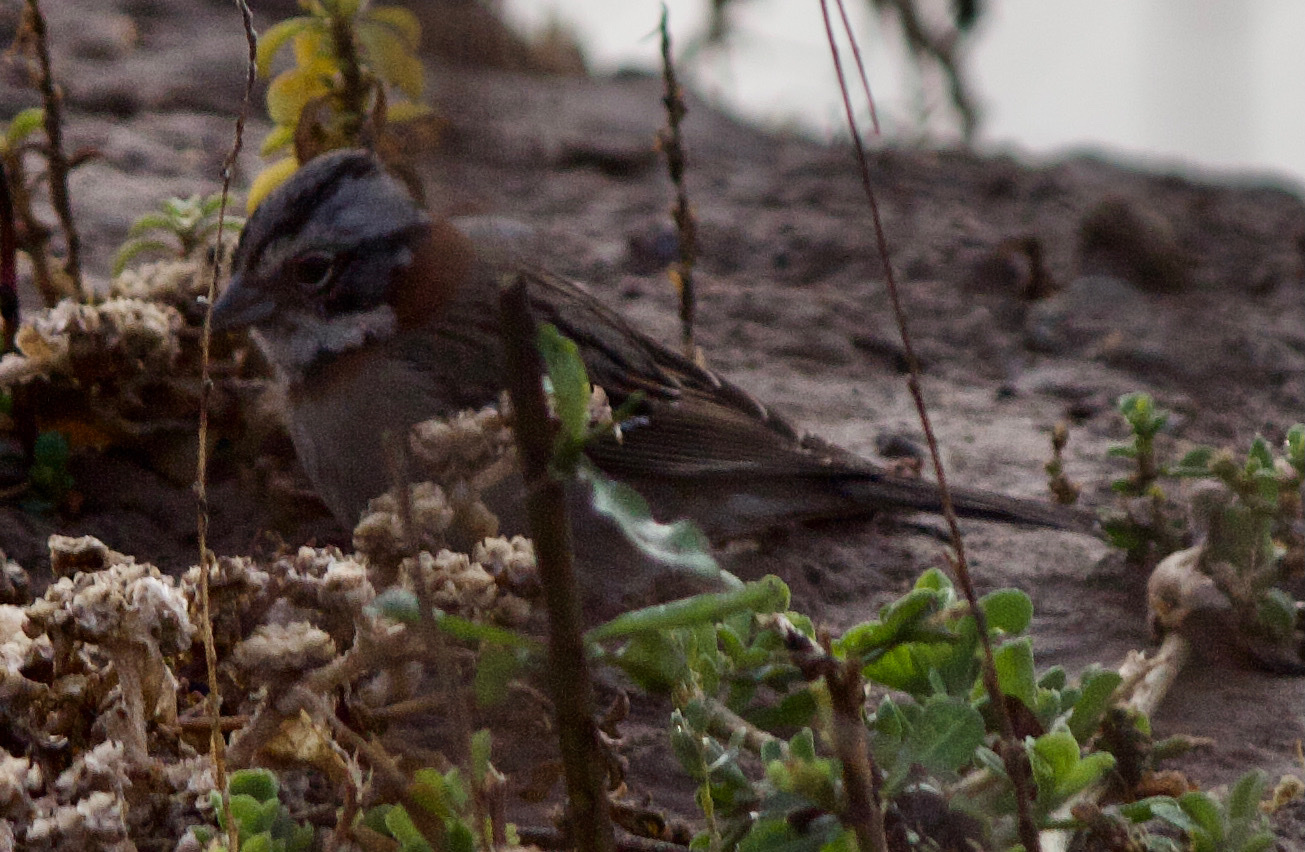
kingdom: Animalia
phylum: Chordata
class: Aves
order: Passeriformes
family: Passerellidae
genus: Zonotrichia
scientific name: Zonotrichia capensis
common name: Rufous-collared sparrow
